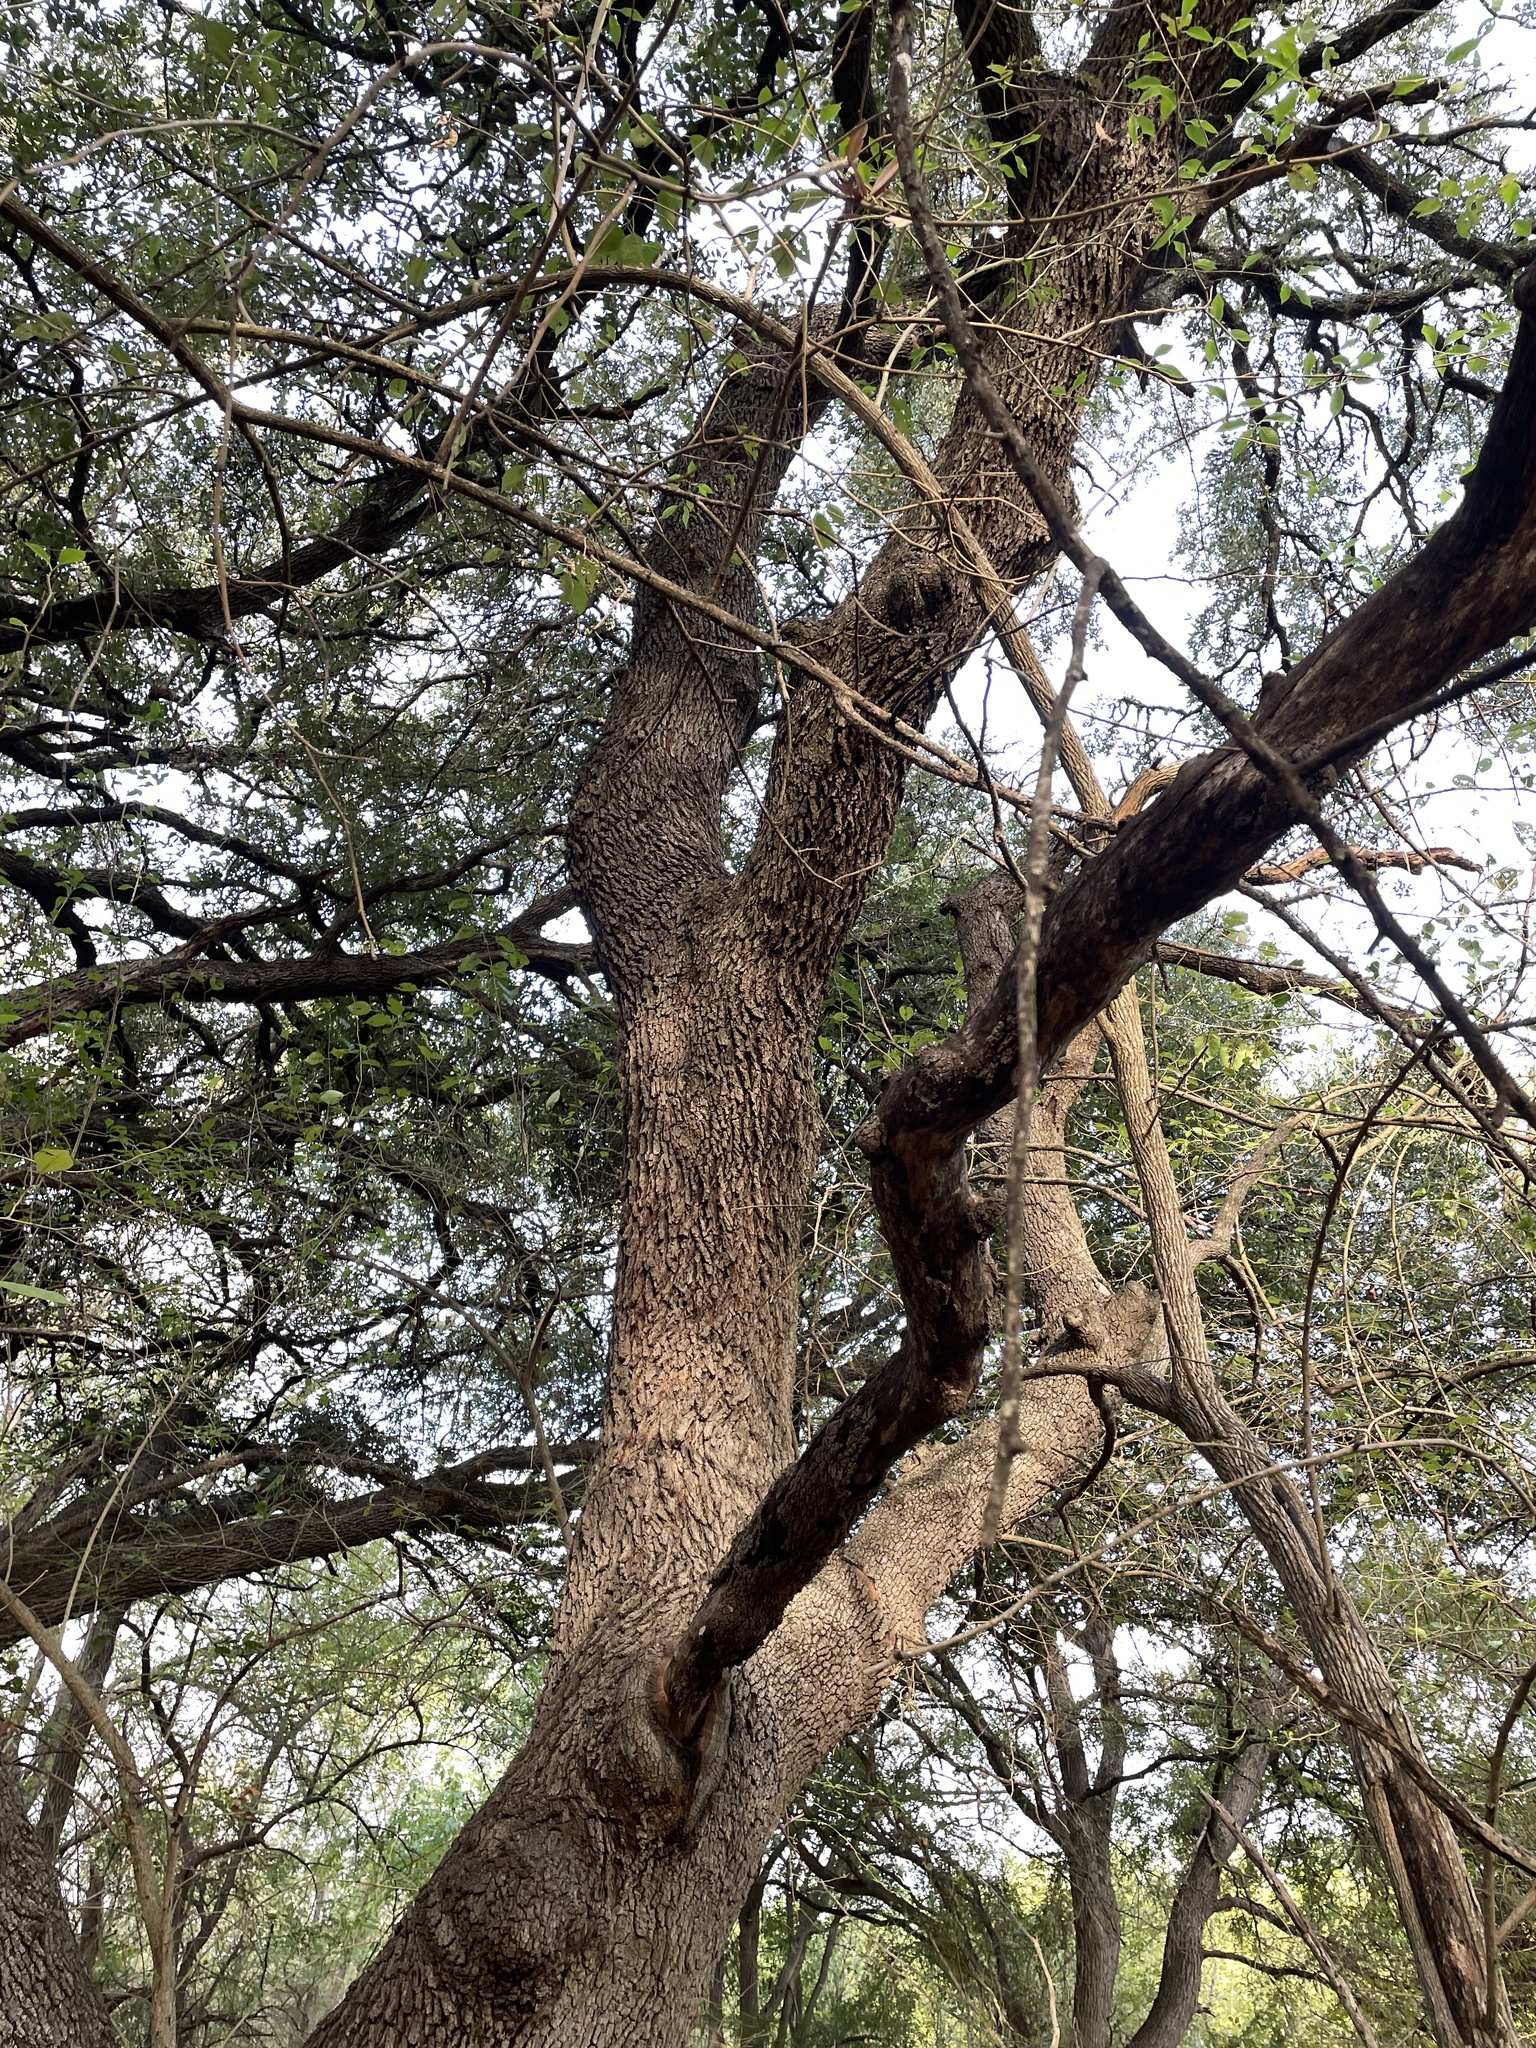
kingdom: Plantae
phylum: Tracheophyta
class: Magnoliopsida
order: Fagales
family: Fagaceae
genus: Quercus
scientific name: Quercus fusiformis
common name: Texas live oak
